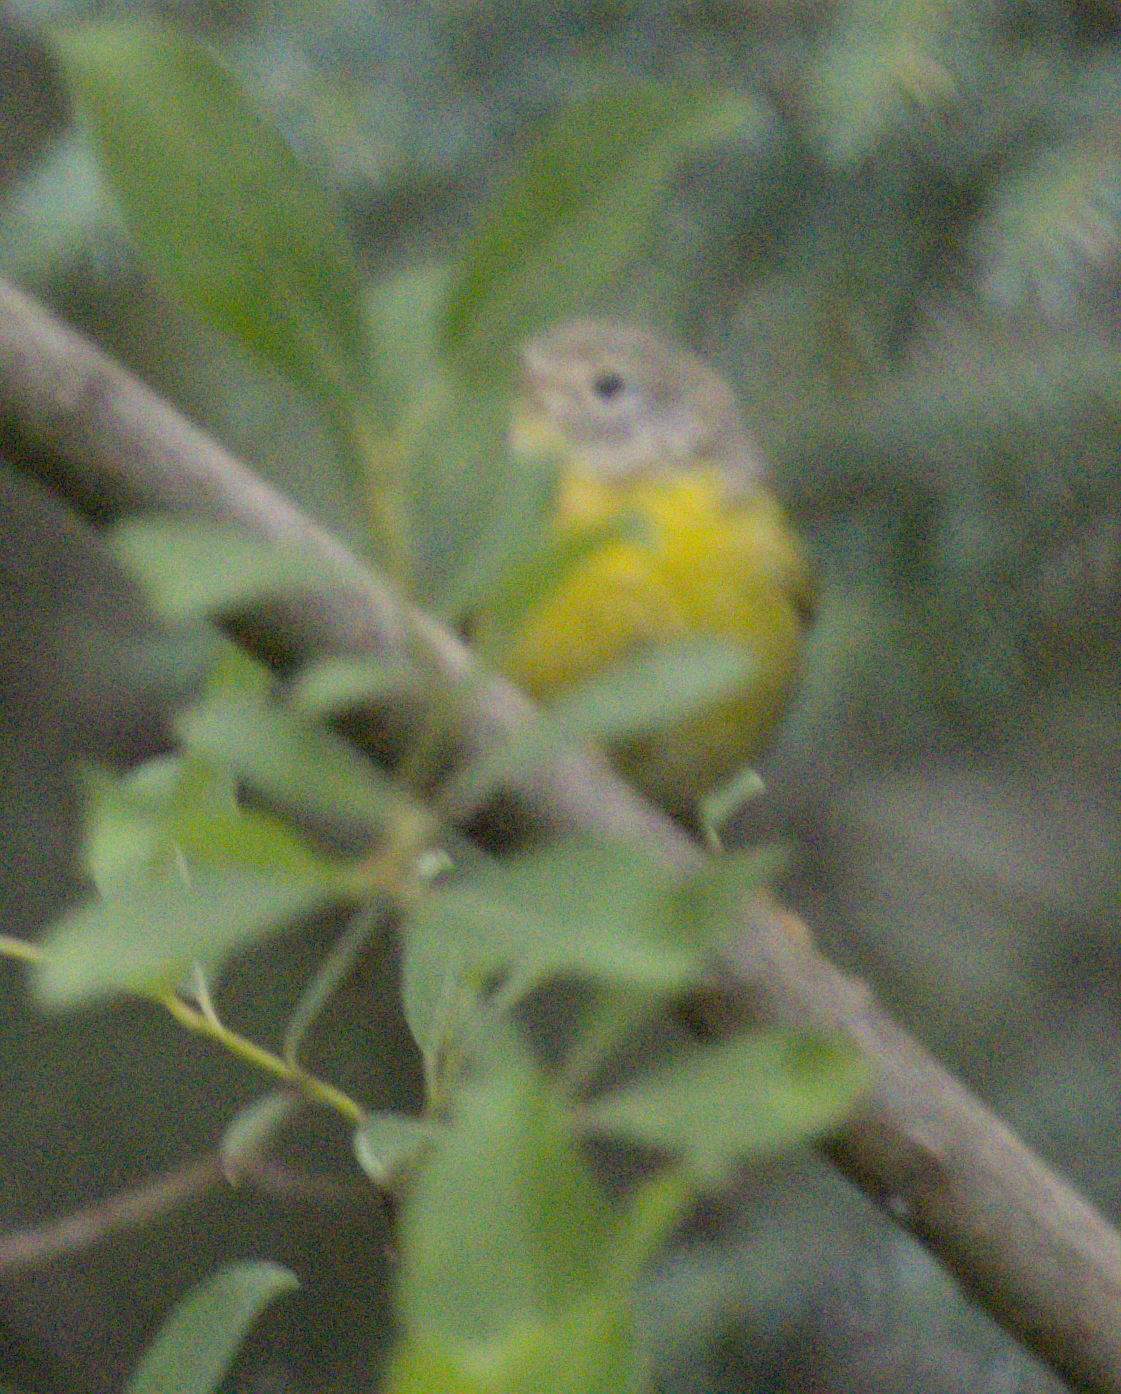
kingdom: Animalia
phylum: Chordata
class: Aves
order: Passeriformes
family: Parulidae
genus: Leiothlypis
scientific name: Leiothlypis ruficapilla
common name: Nashville warbler
